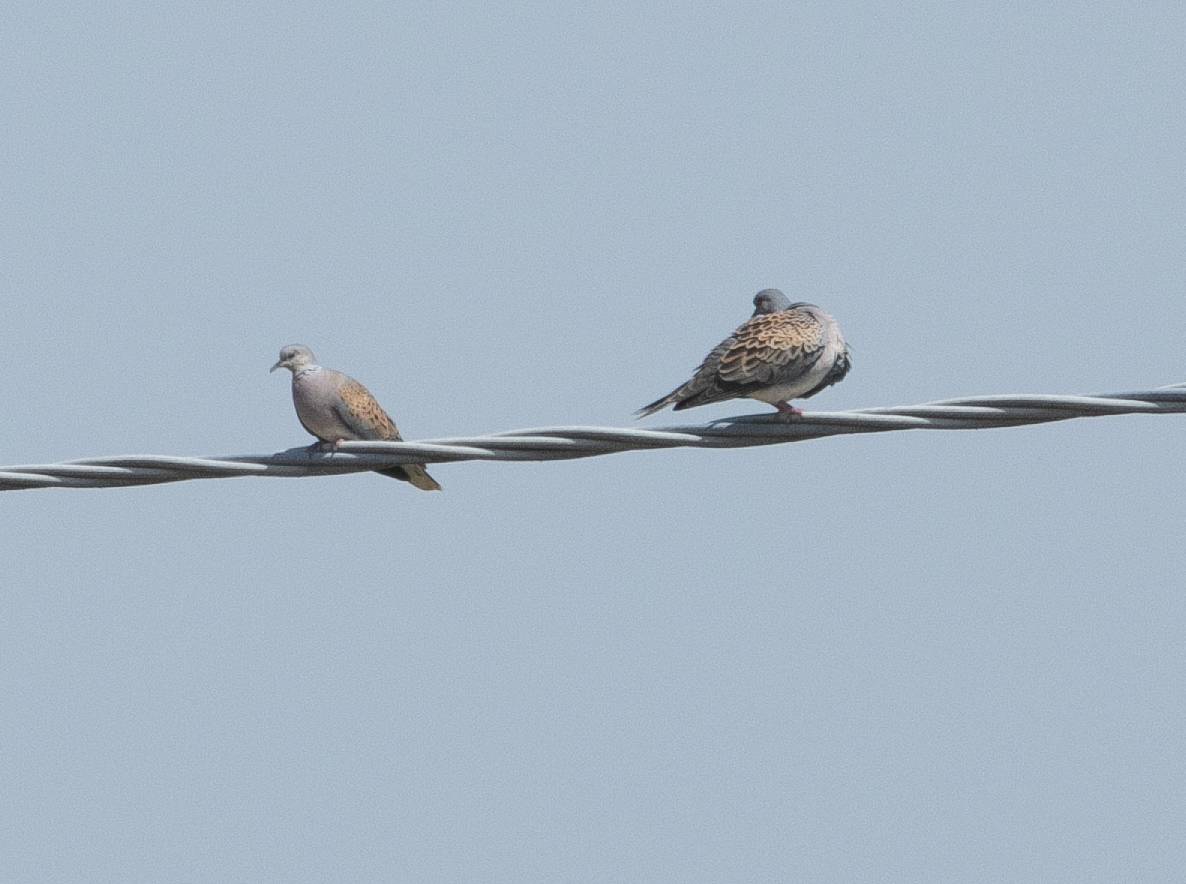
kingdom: Animalia
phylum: Chordata
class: Aves
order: Columbiformes
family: Columbidae
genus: Streptopelia
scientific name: Streptopelia turtur
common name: European turtle dove
